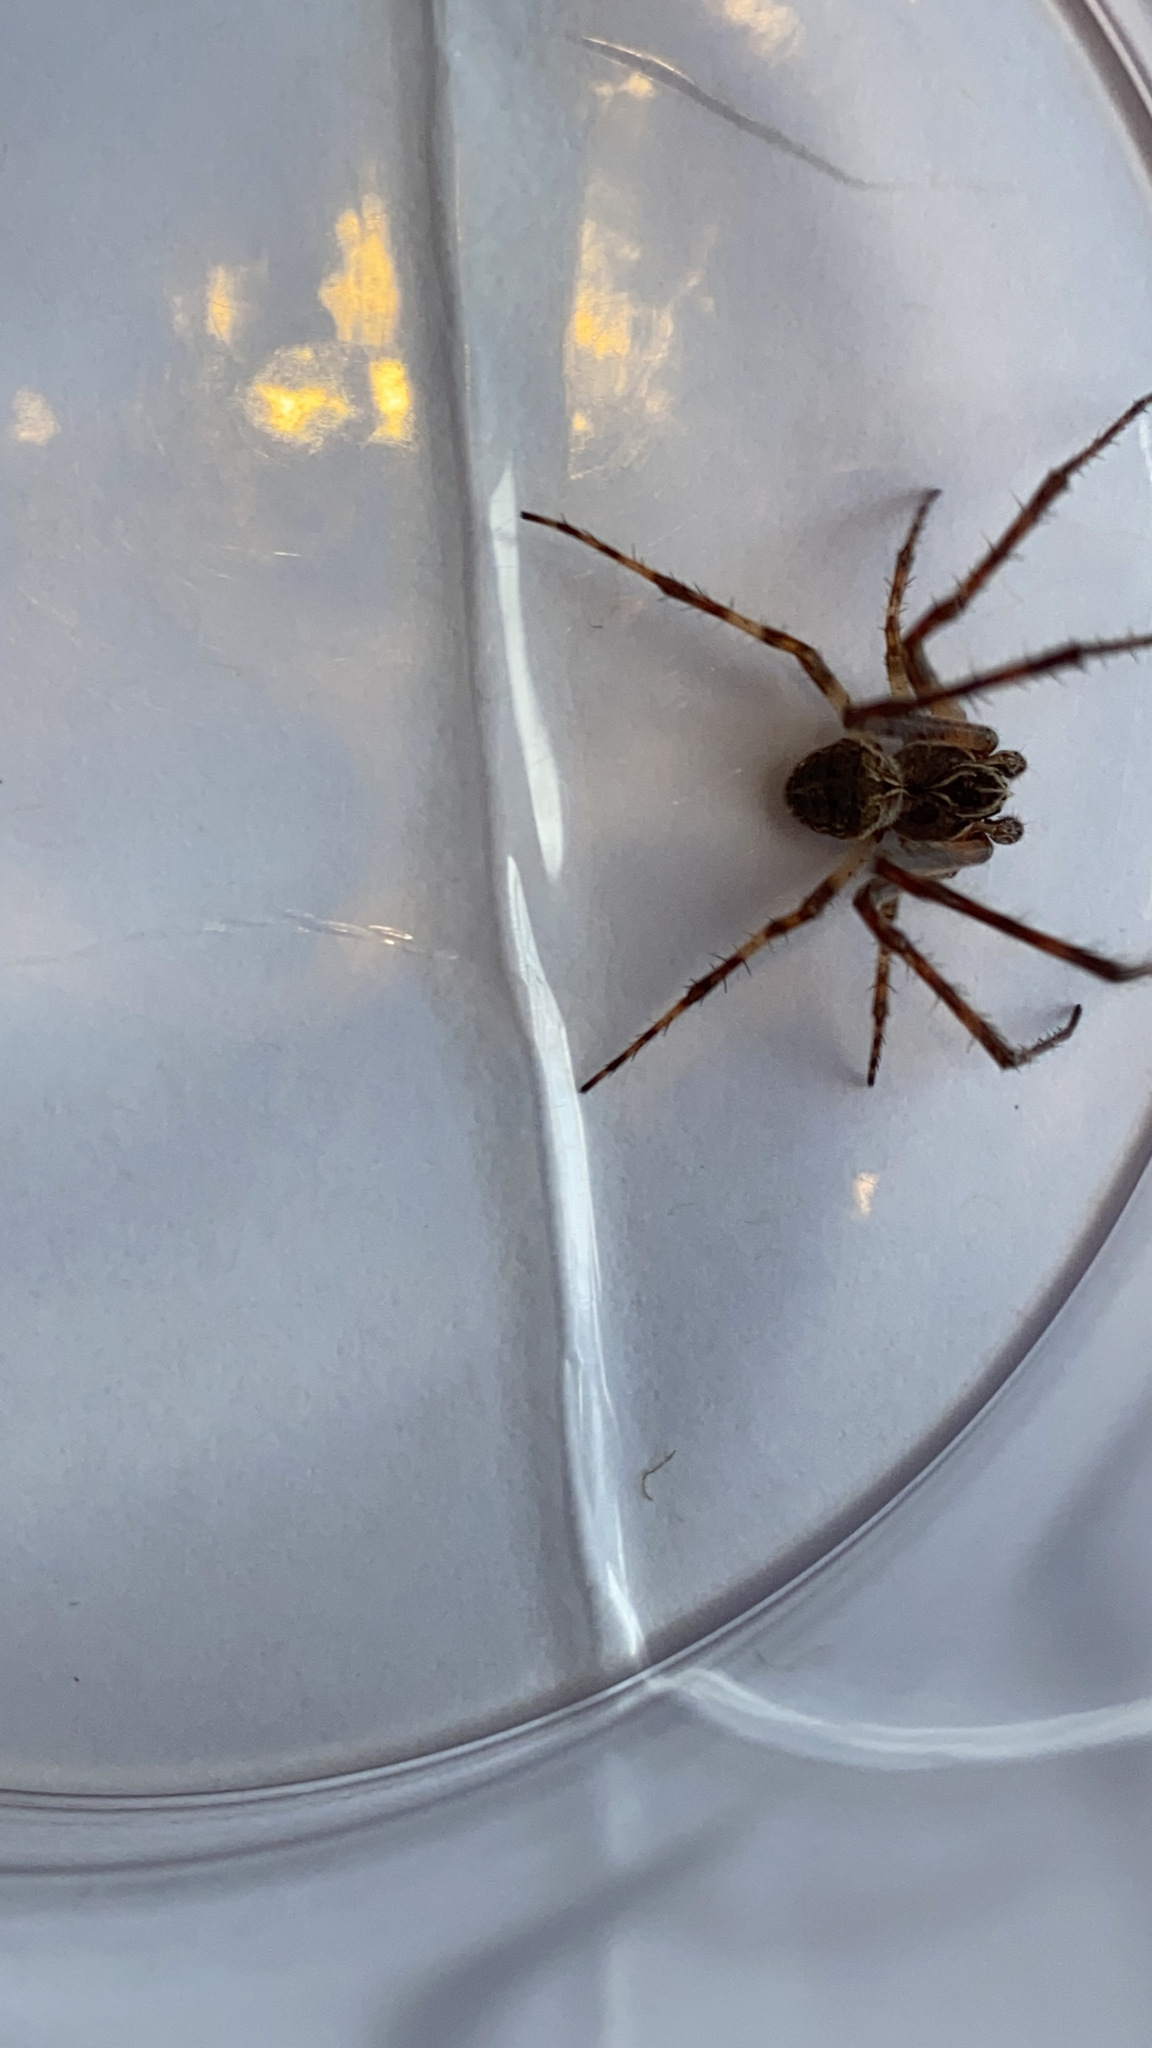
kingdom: Animalia
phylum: Arthropoda
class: Arachnida
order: Araneae
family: Araneidae
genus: Larinioides
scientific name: Larinioides sclopetarius
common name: Bridge orbweaver
